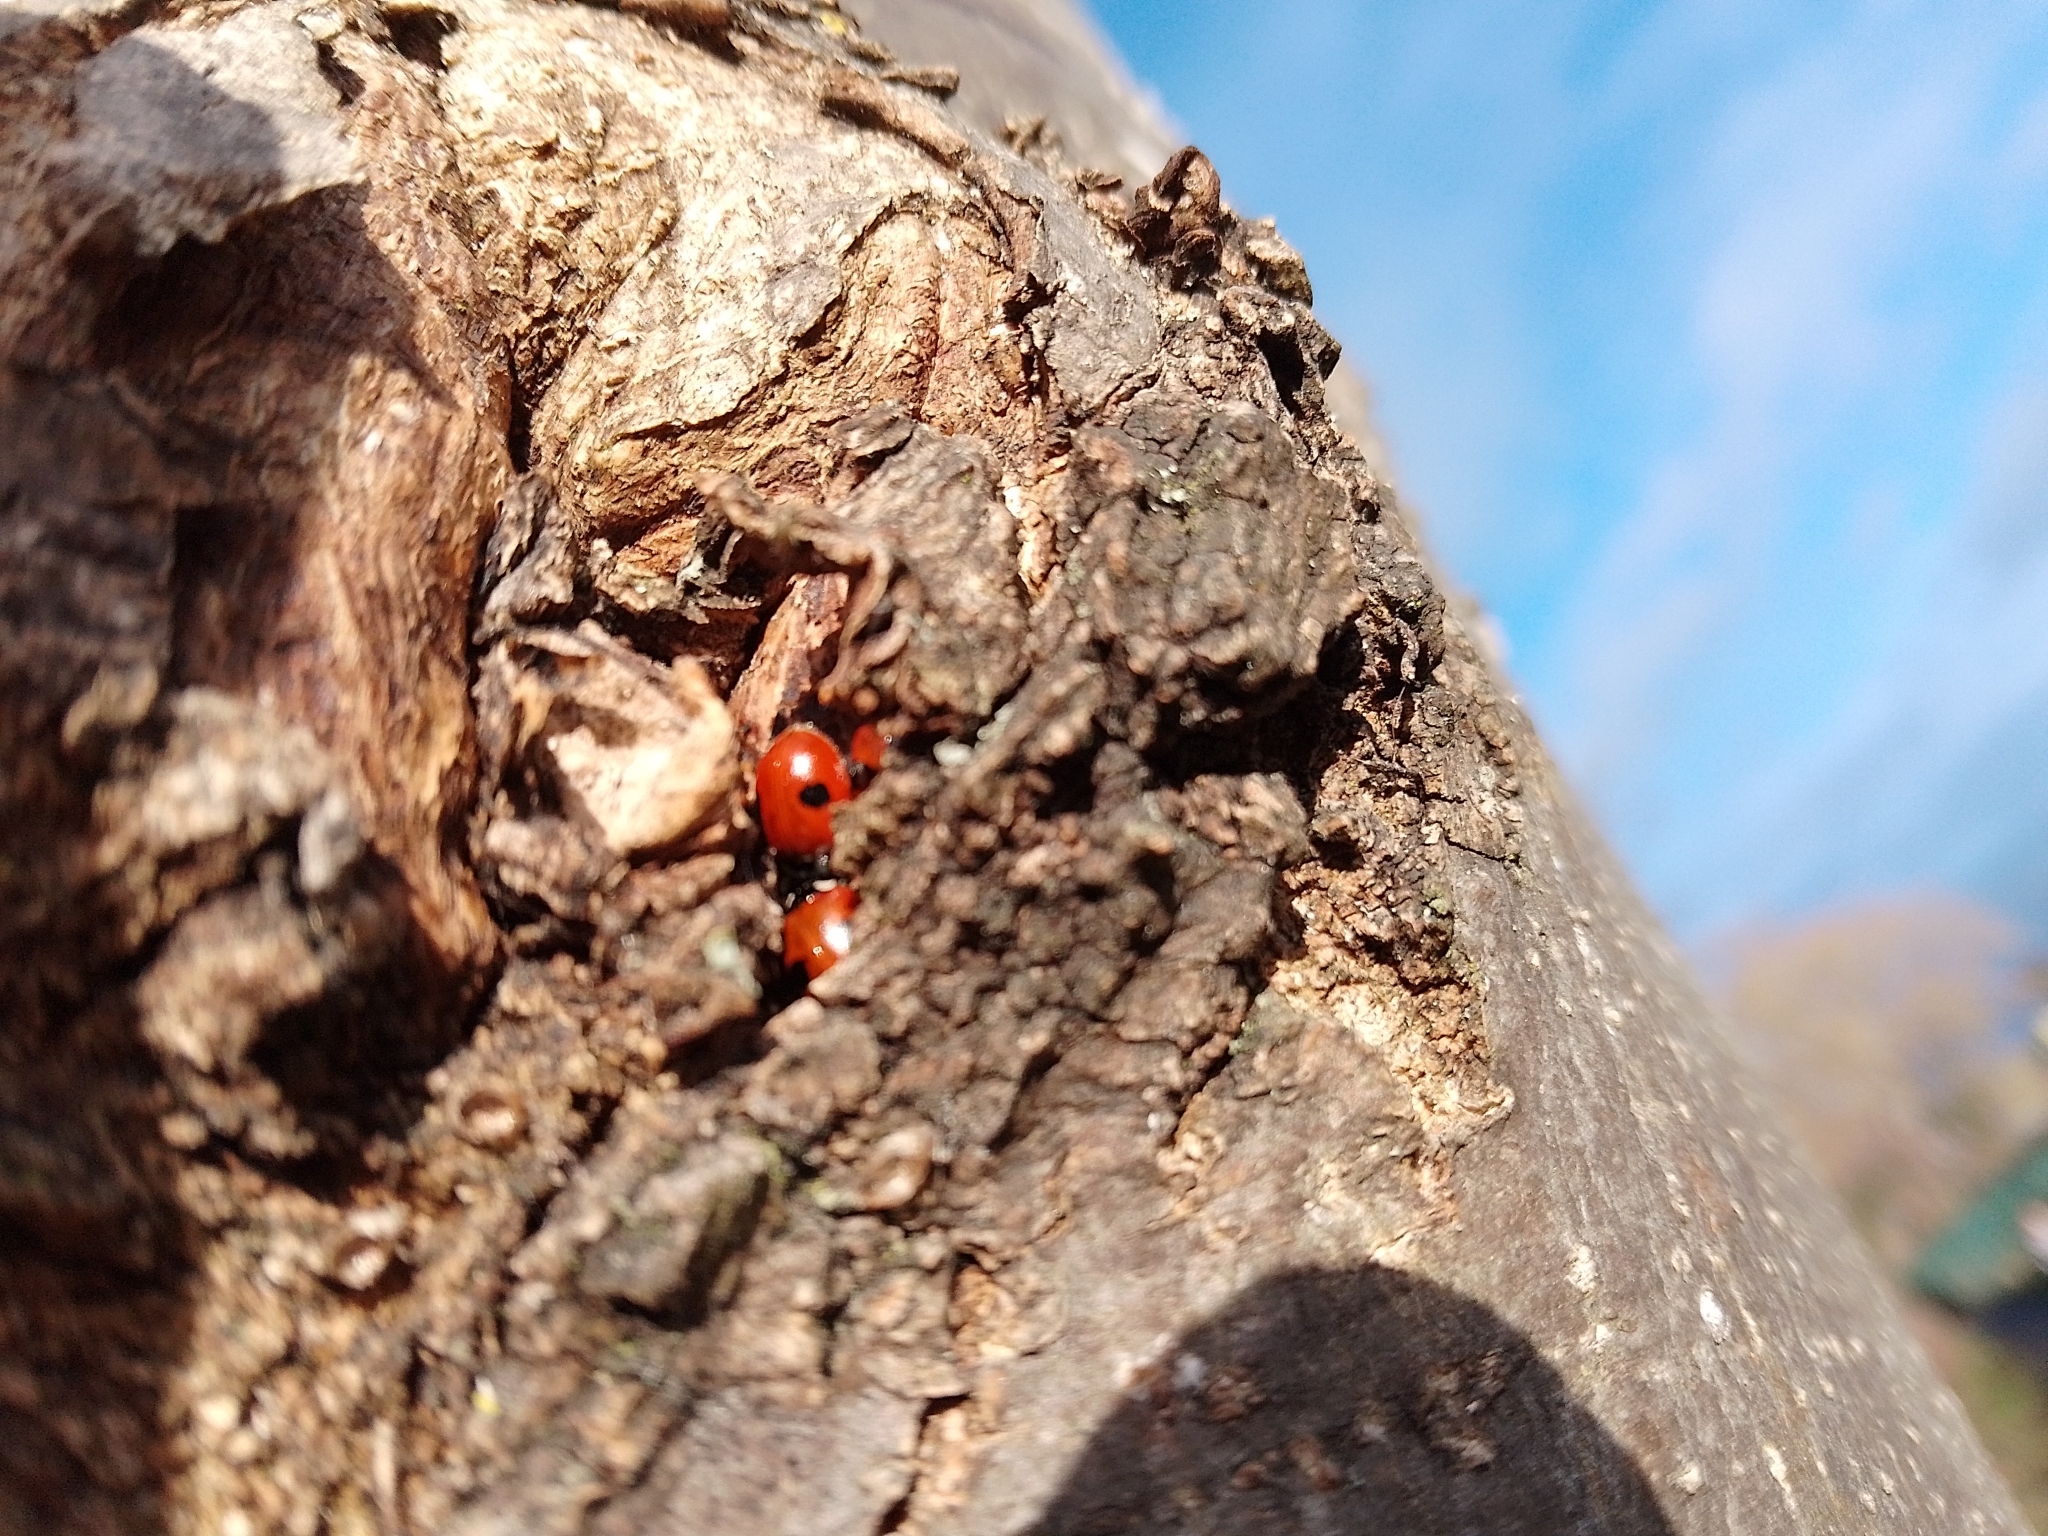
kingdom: Animalia
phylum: Arthropoda
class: Insecta
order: Coleoptera
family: Coccinellidae
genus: Adalia
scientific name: Adalia bipunctata
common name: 2-spot ladybird
